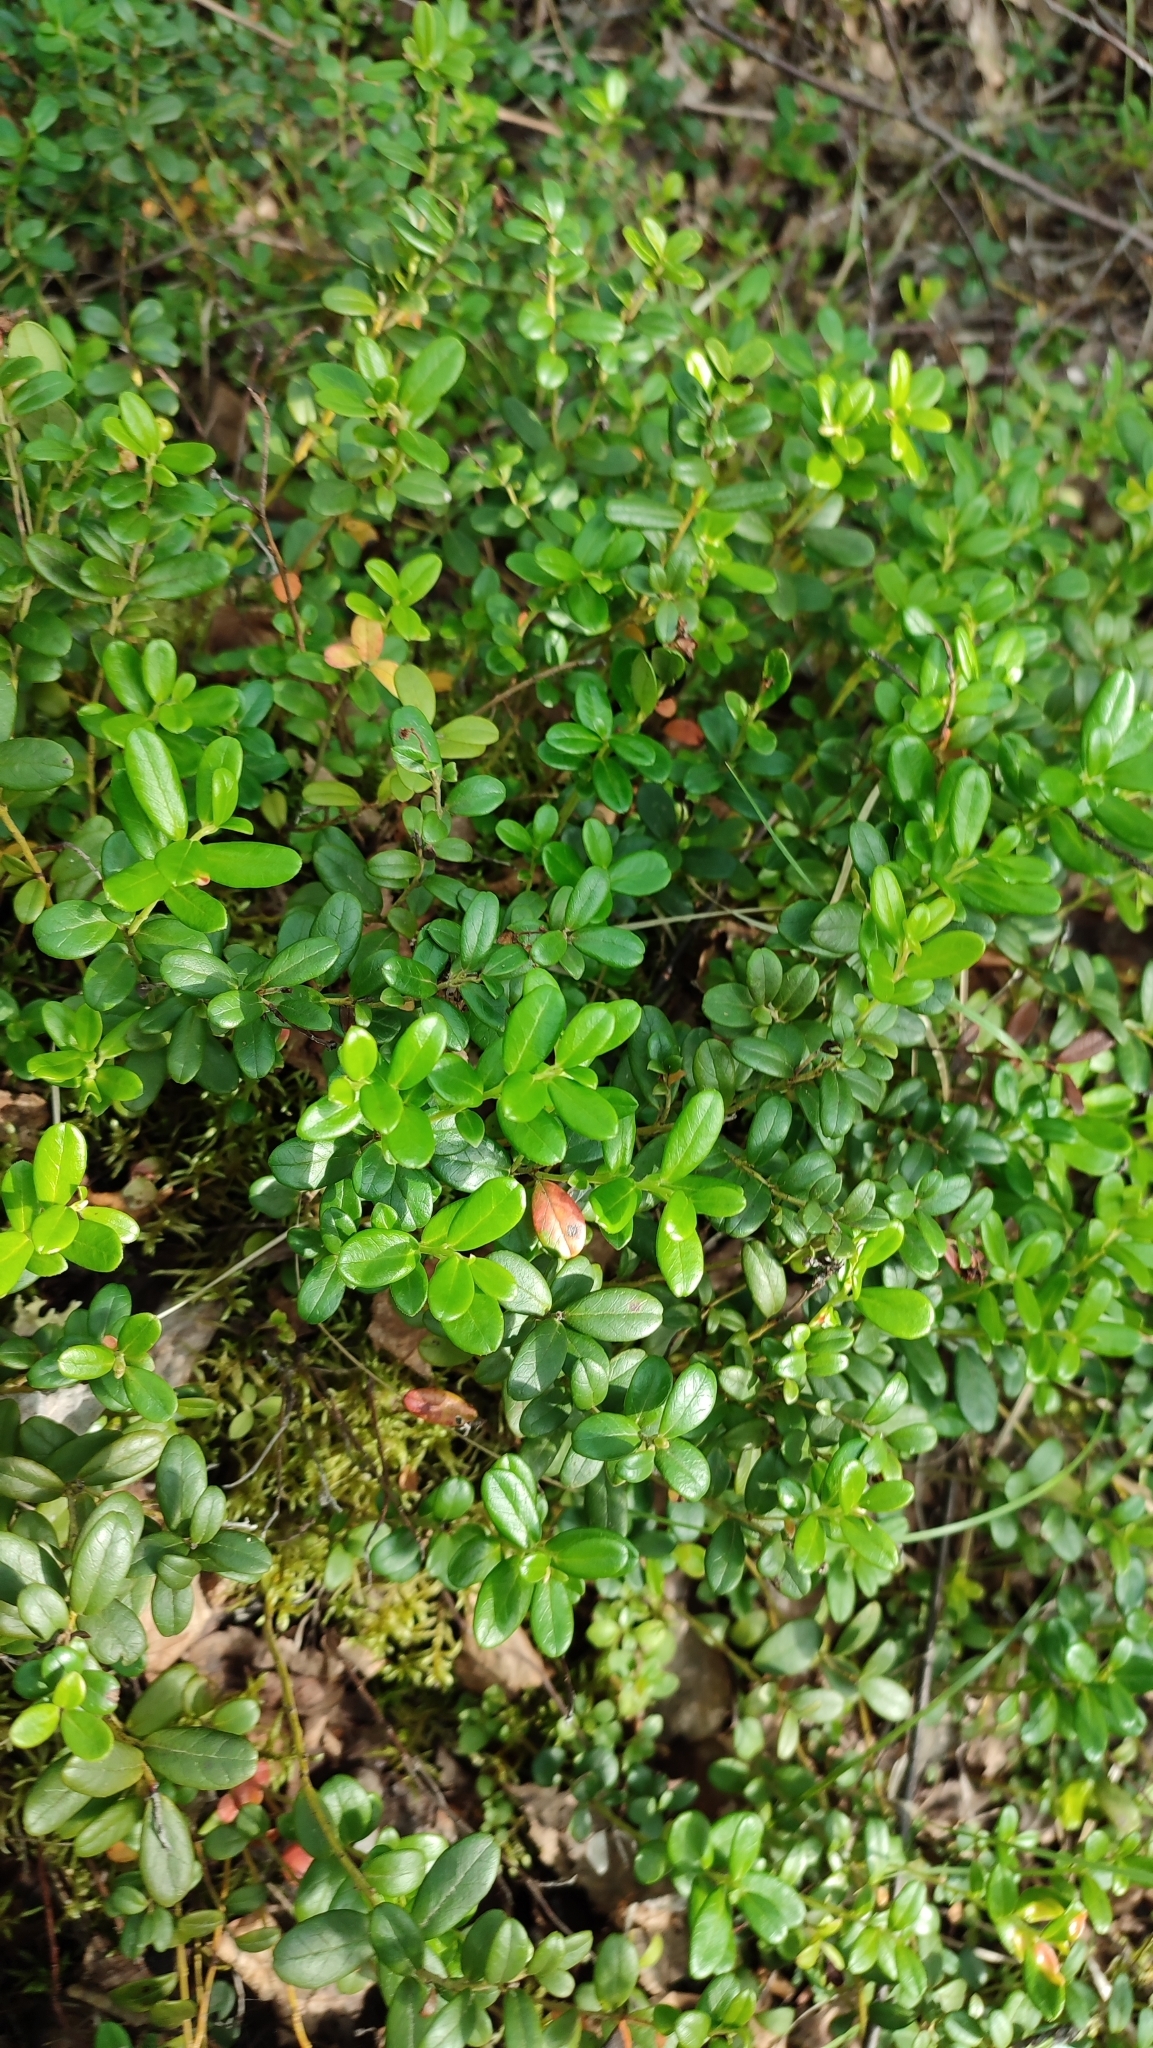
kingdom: Plantae
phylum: Tracheophyta
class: Magnoliopsida
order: Ericales
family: Ericaceae
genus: Vaccinium
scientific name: Vaccinium vitis-idaea
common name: Cowberry
